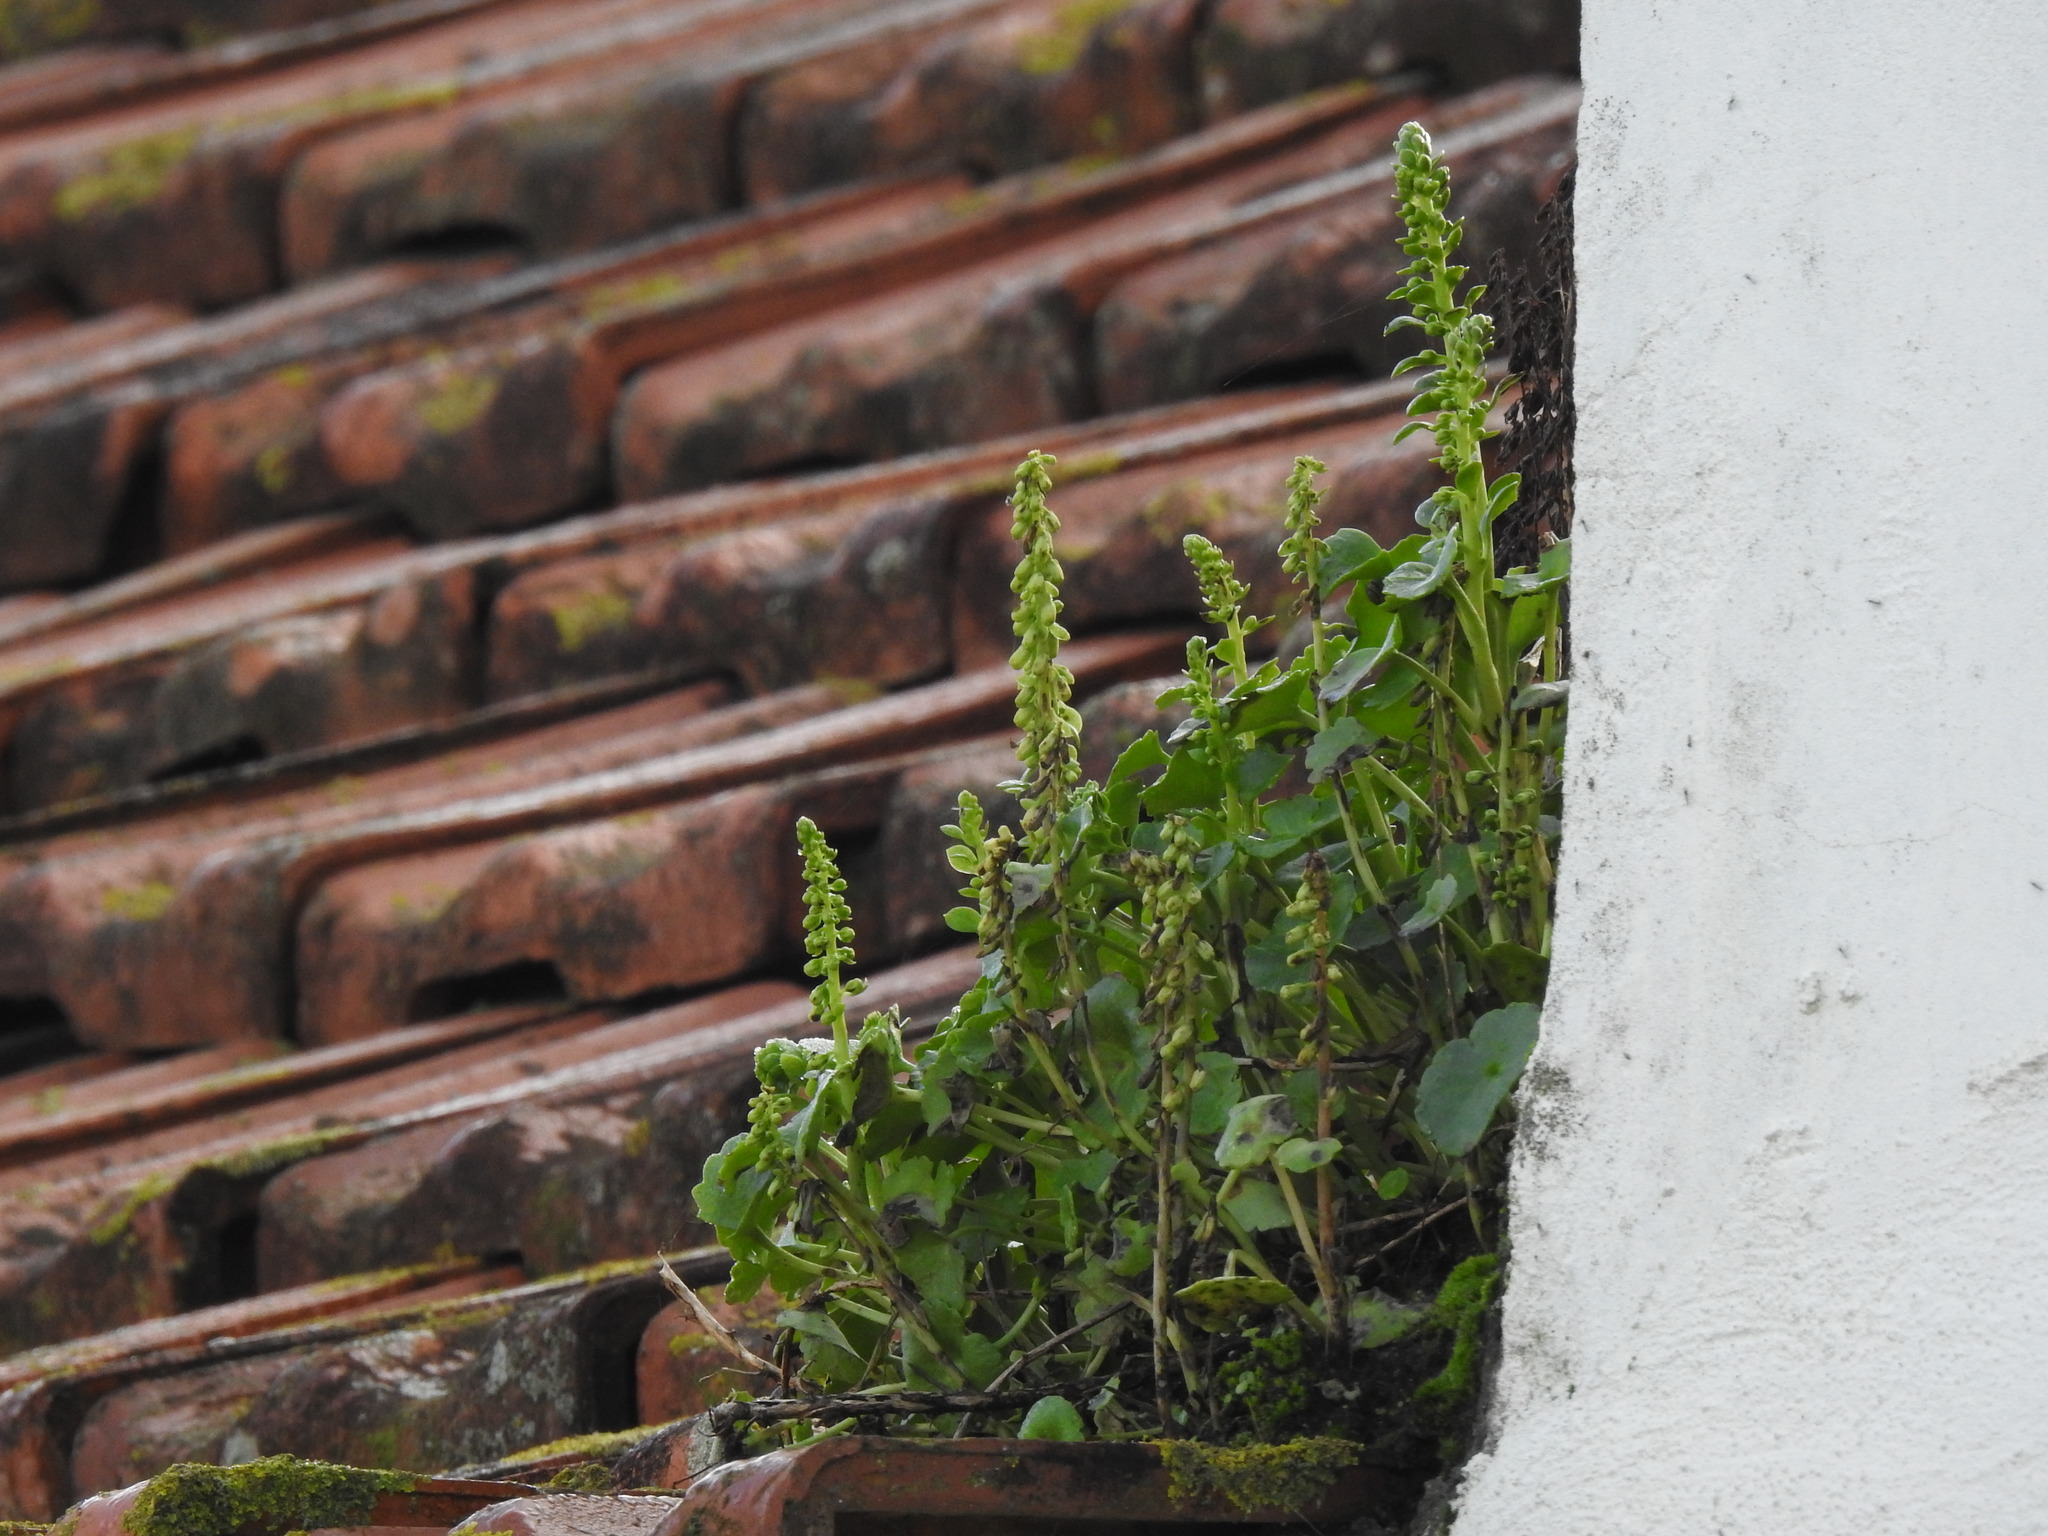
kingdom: Plantae
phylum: Tracheophyta
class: Magnoliopsida
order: Saxifragales
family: Crassulaceae
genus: Umbilicus
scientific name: Umbilicus rupestris
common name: Navelwort
